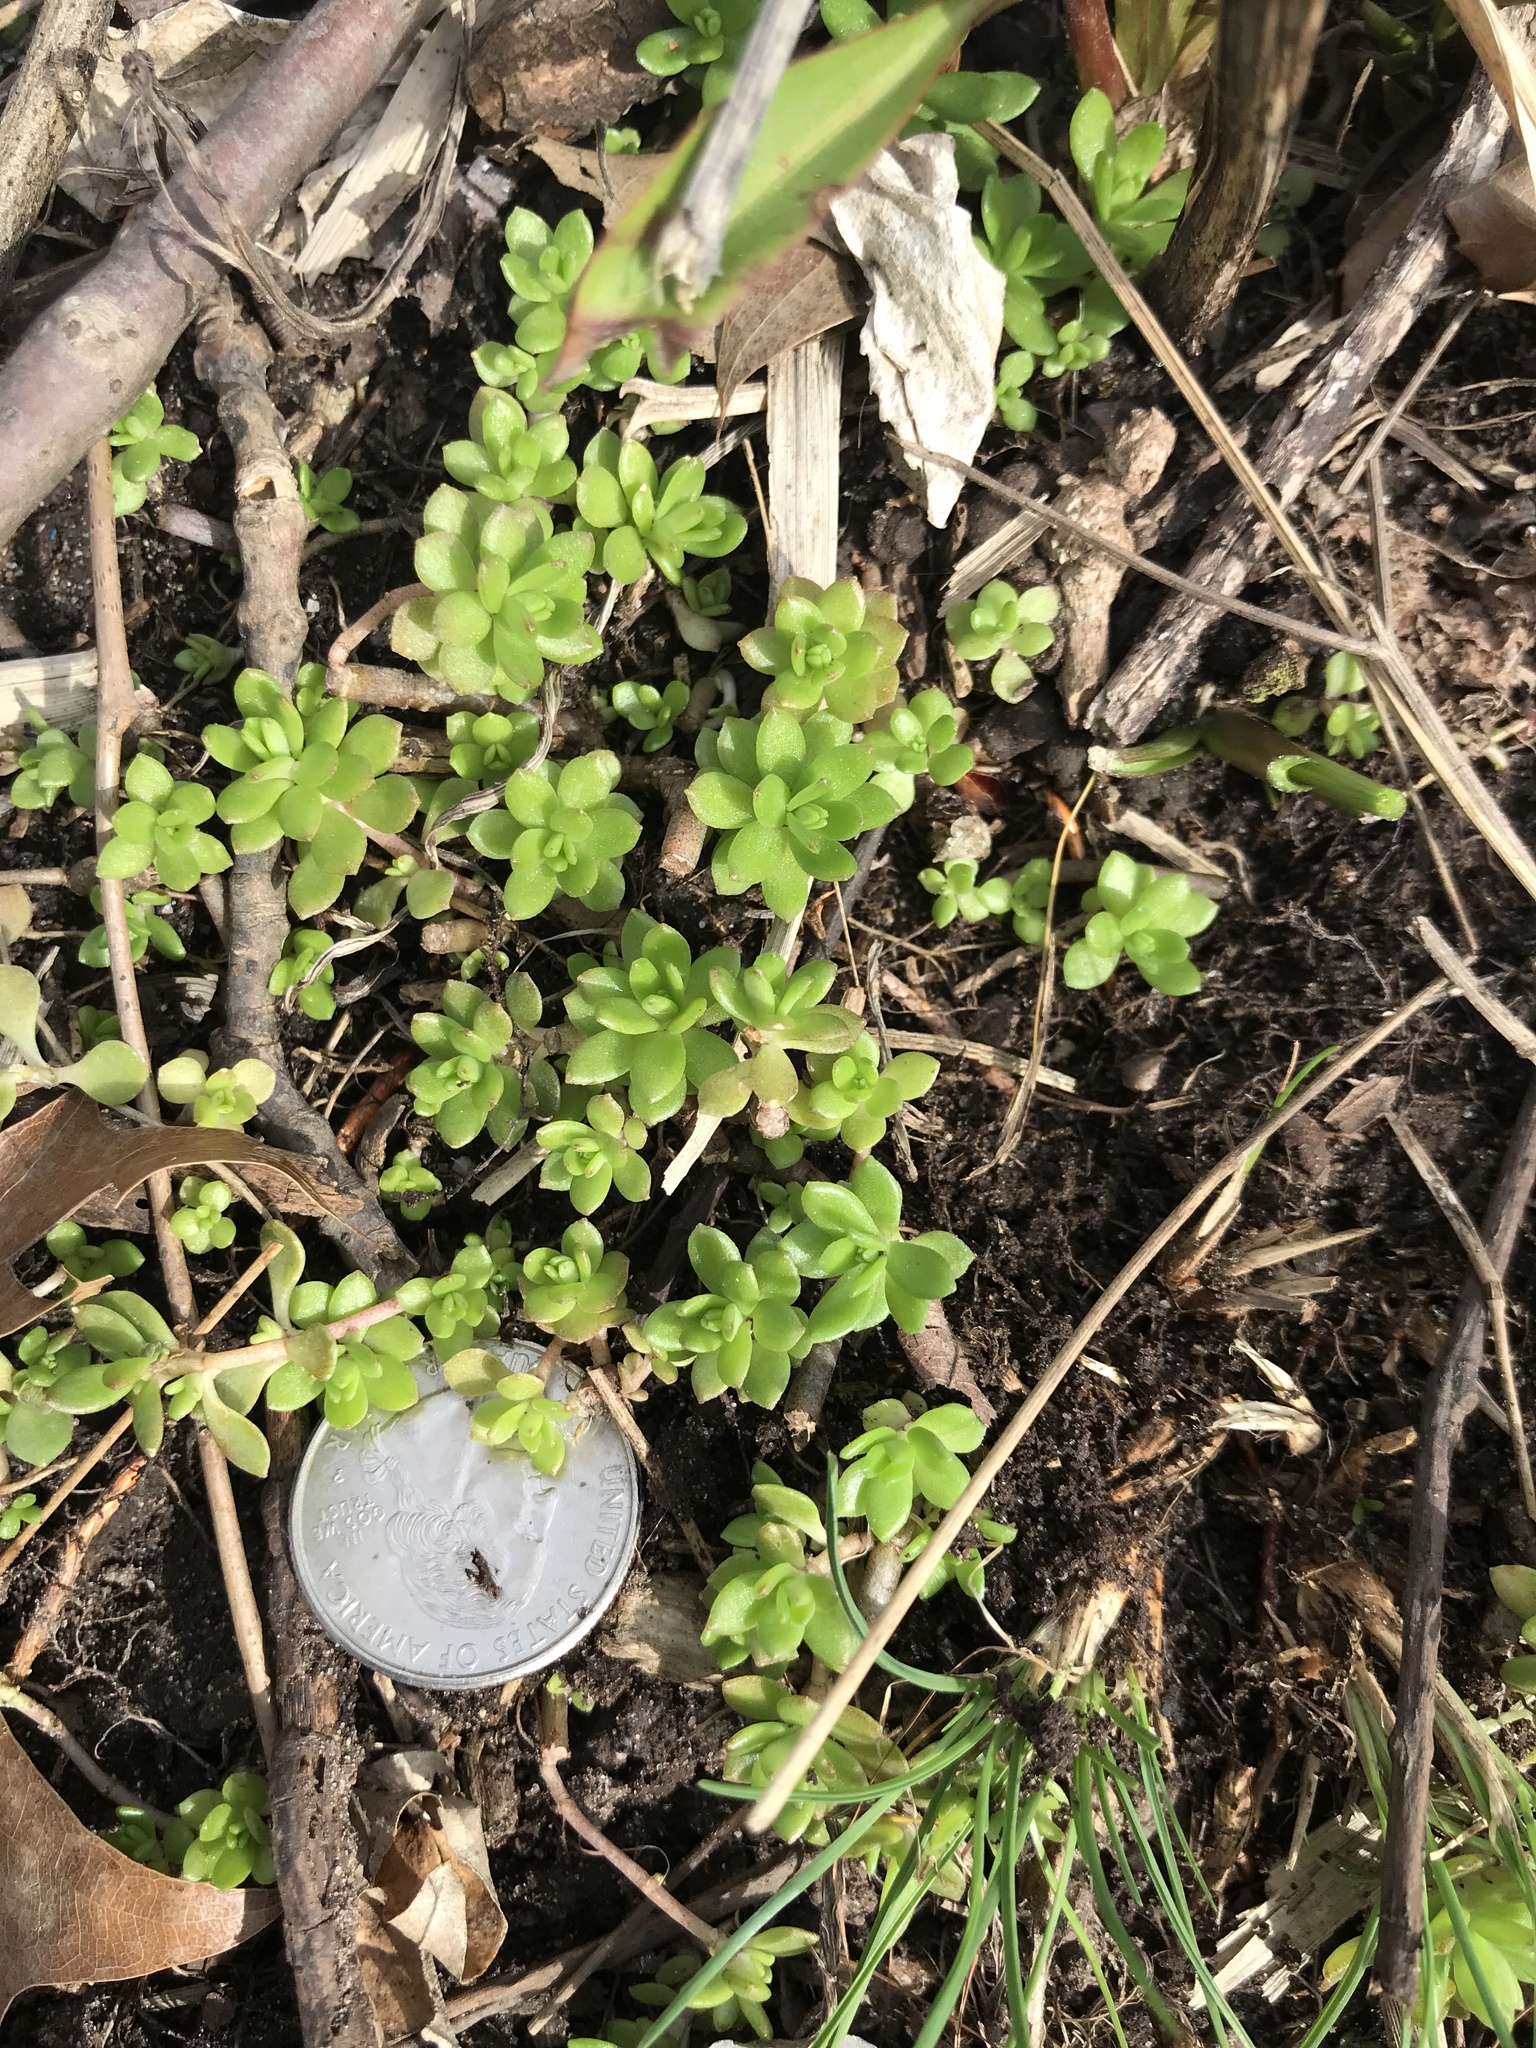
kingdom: Plantae
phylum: Tracheophyta
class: Magnoliopsida
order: Saxifragales
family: Crassulaceae
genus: Sedum
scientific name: Sedum sarmentosum
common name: Stringy stonecrop
